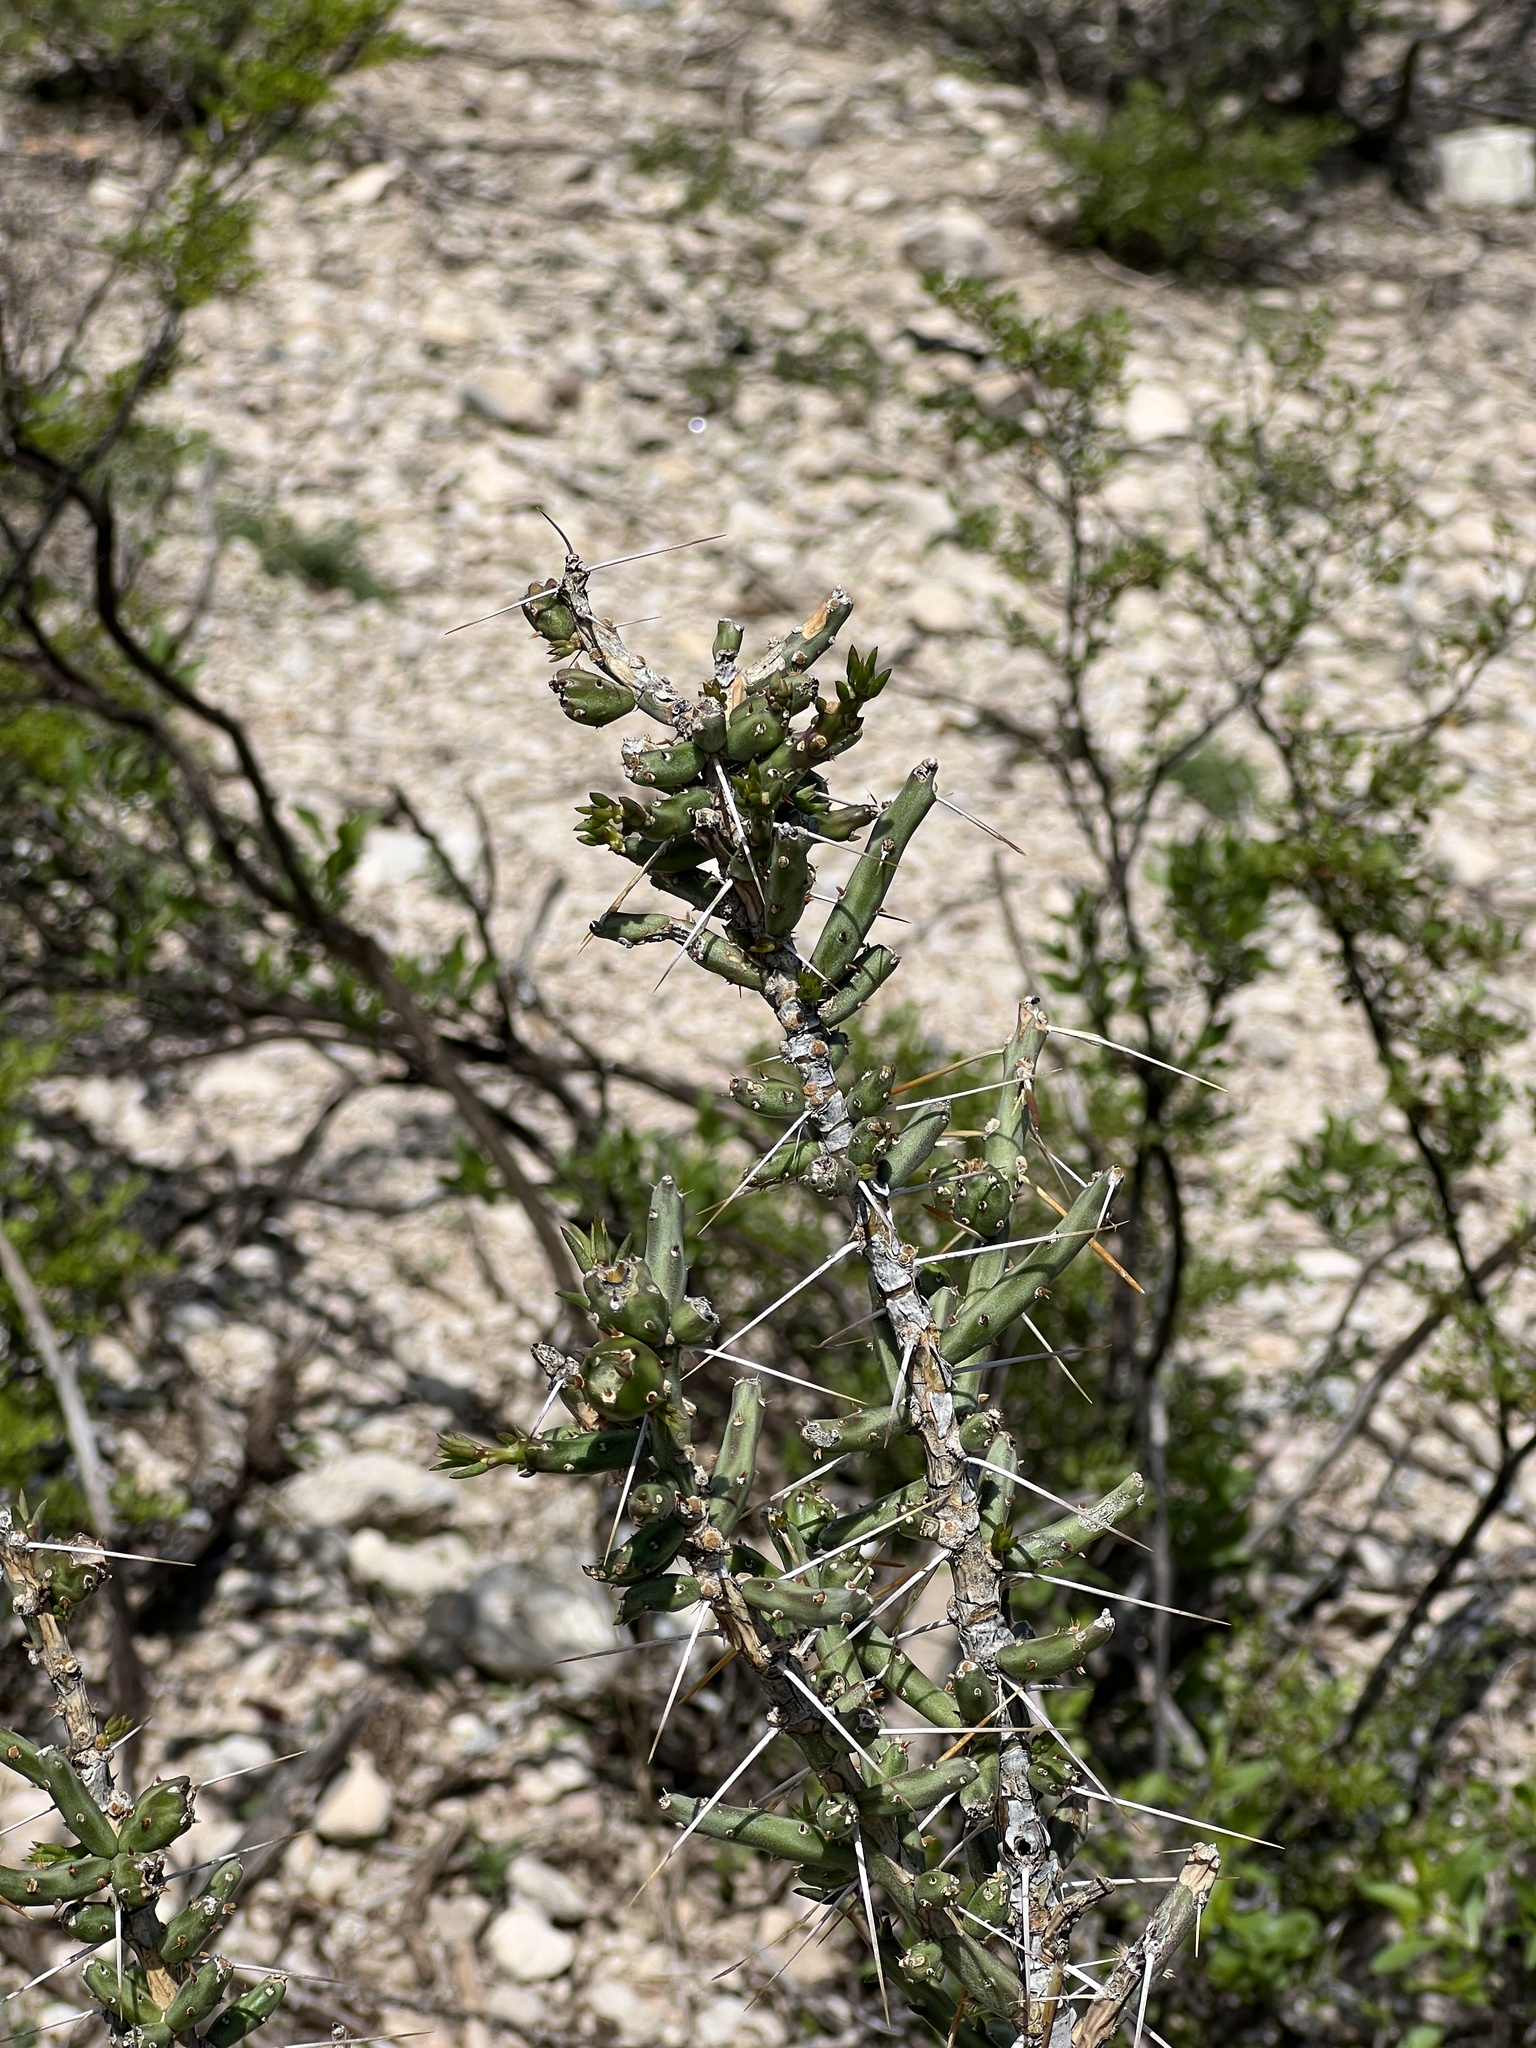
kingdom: Plantae
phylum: Tracheophyta
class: Magnoliopsida
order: Caryophyllales
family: Cactaceae
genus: Cylindropuntia
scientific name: Cylindropuntia leptocaulis
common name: Christmas cactus
